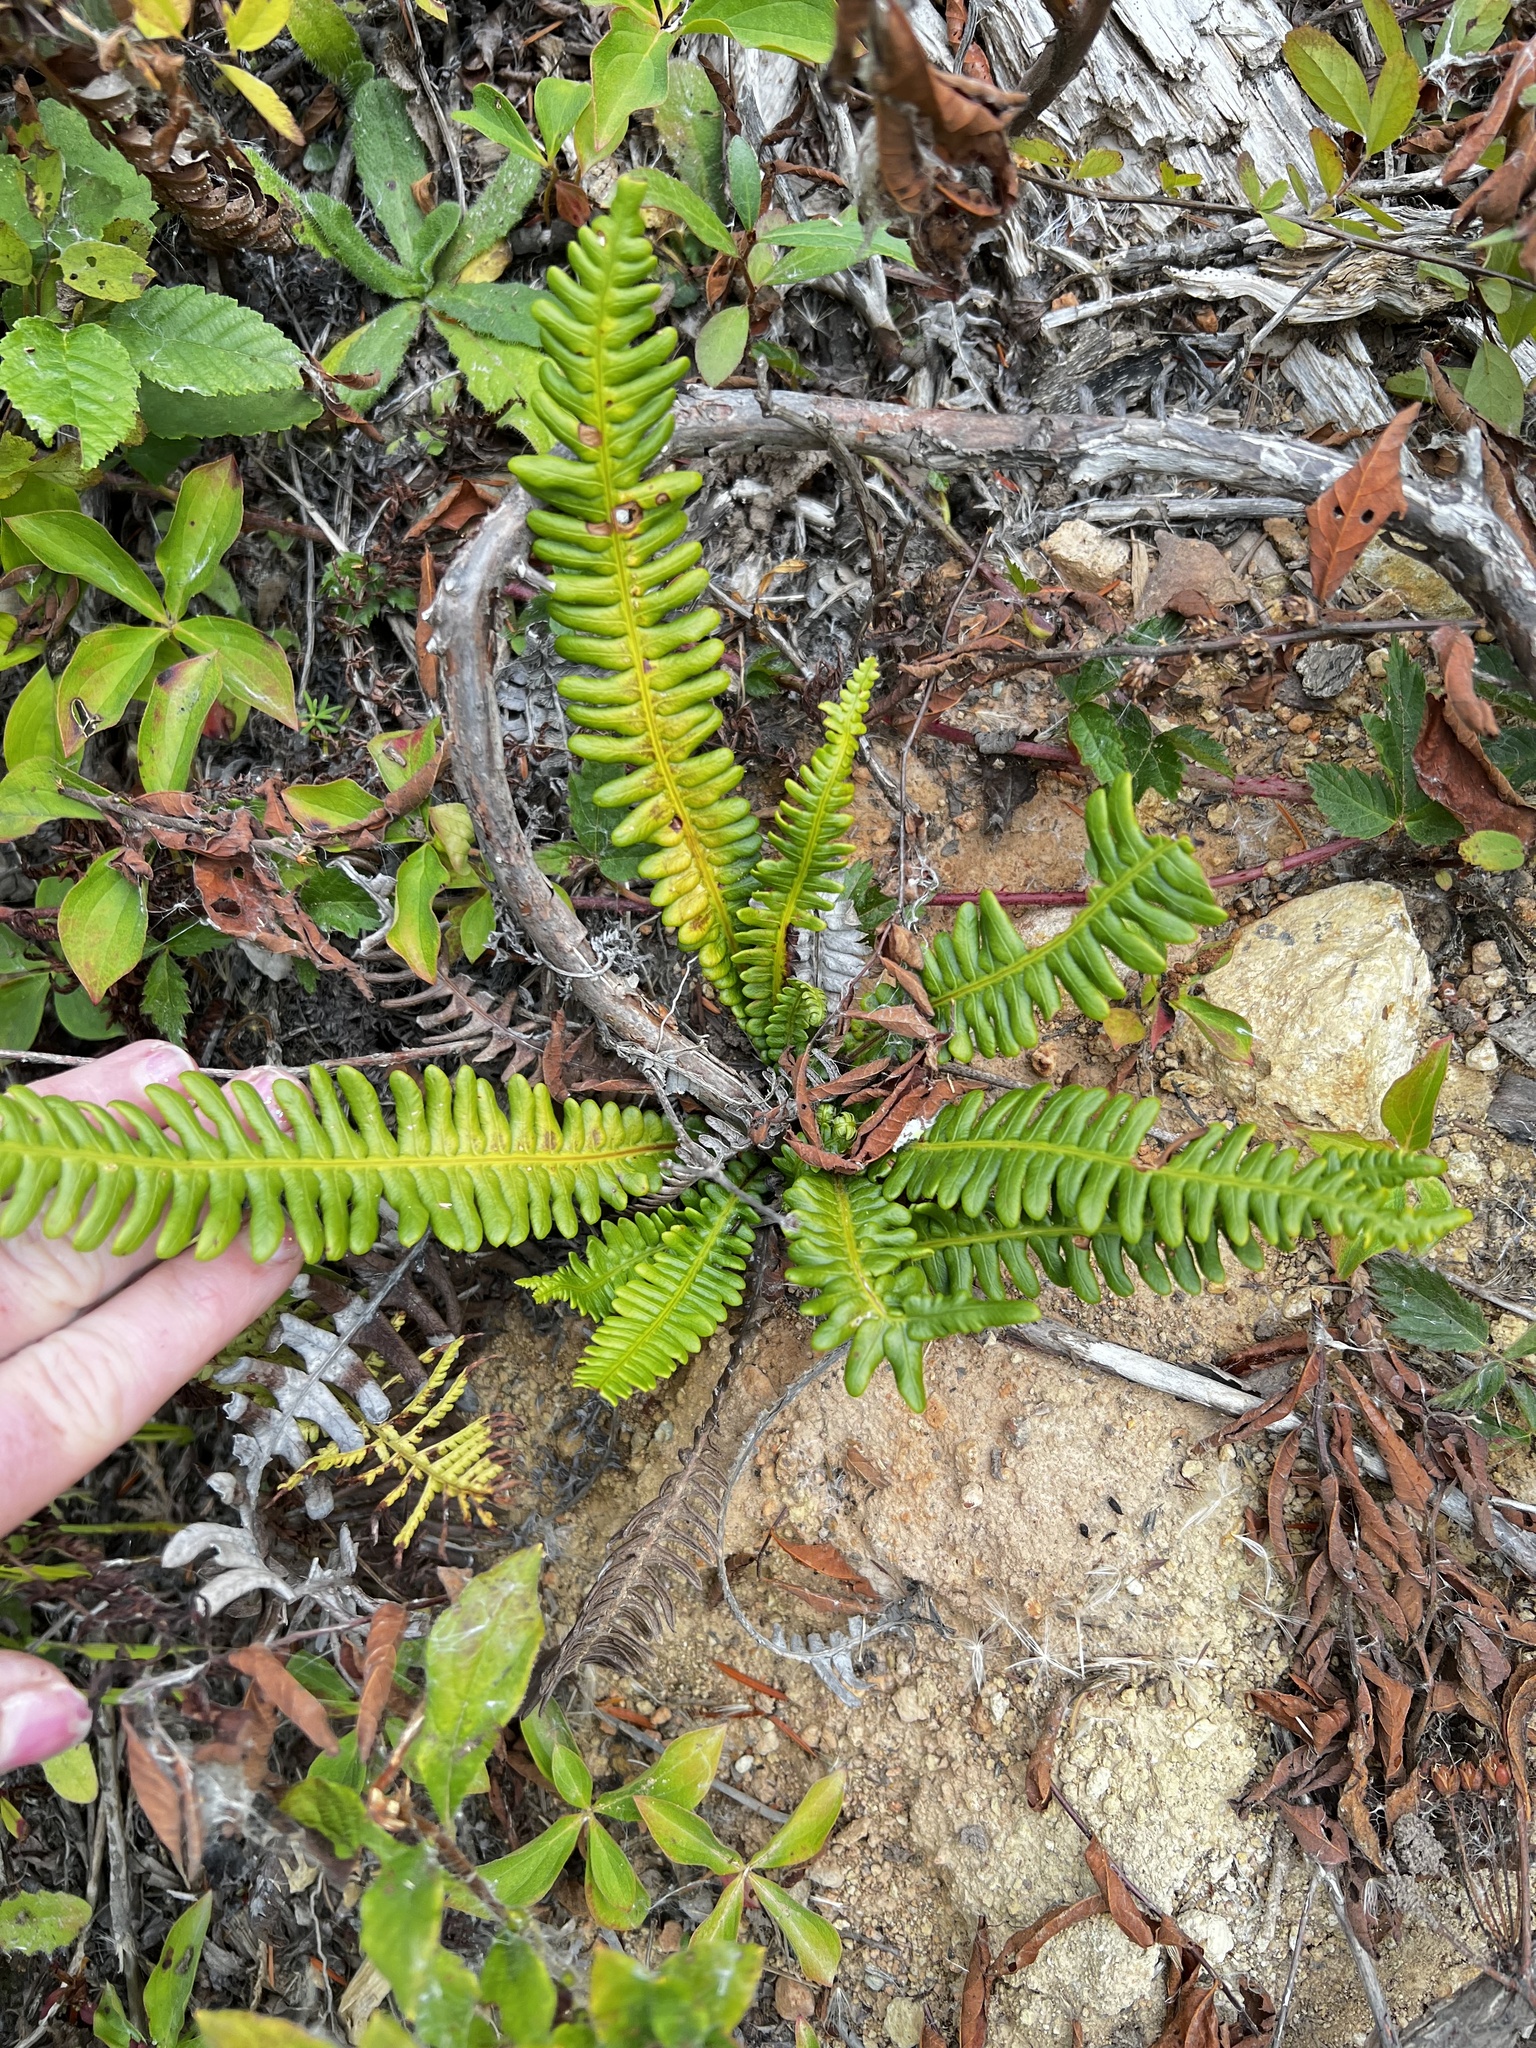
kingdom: Plantae
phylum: Tracheophyta
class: Polypodiopsida
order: Polypodiales
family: Blechnaceae
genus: Struthiopteris
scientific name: Struthiopteris spicant
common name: Deer fern
